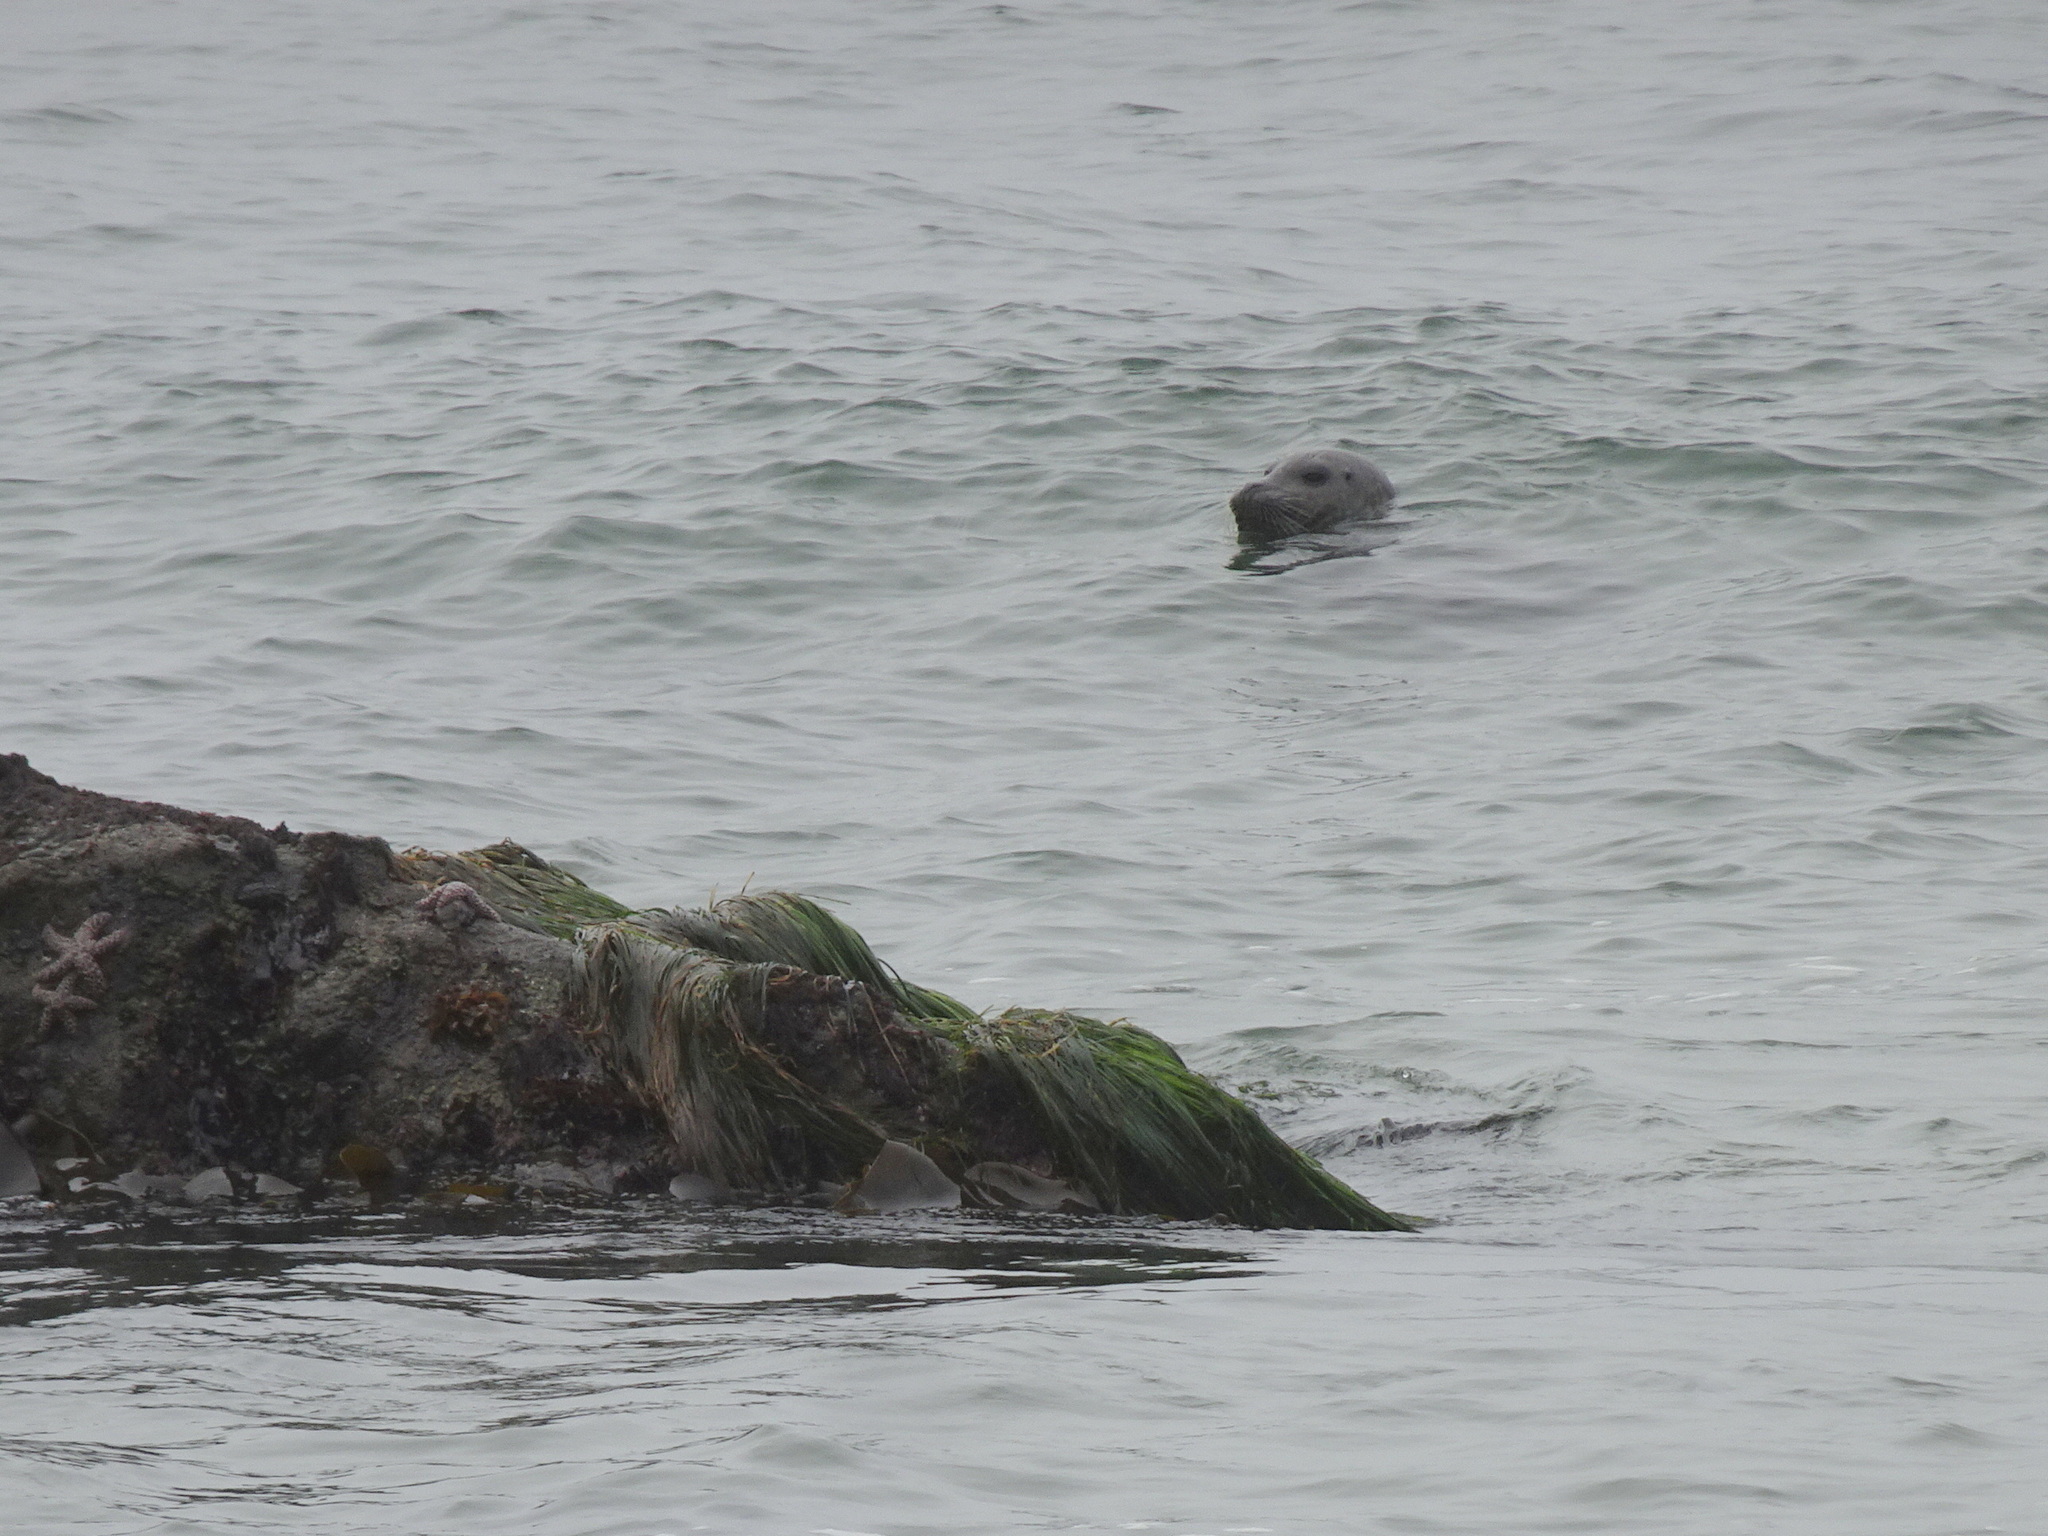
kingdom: Animalia
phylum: Chordata
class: Mammalia
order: Carnivora
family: Phocidae
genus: Phoca
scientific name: Phoca vitulina
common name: Harbor seal
